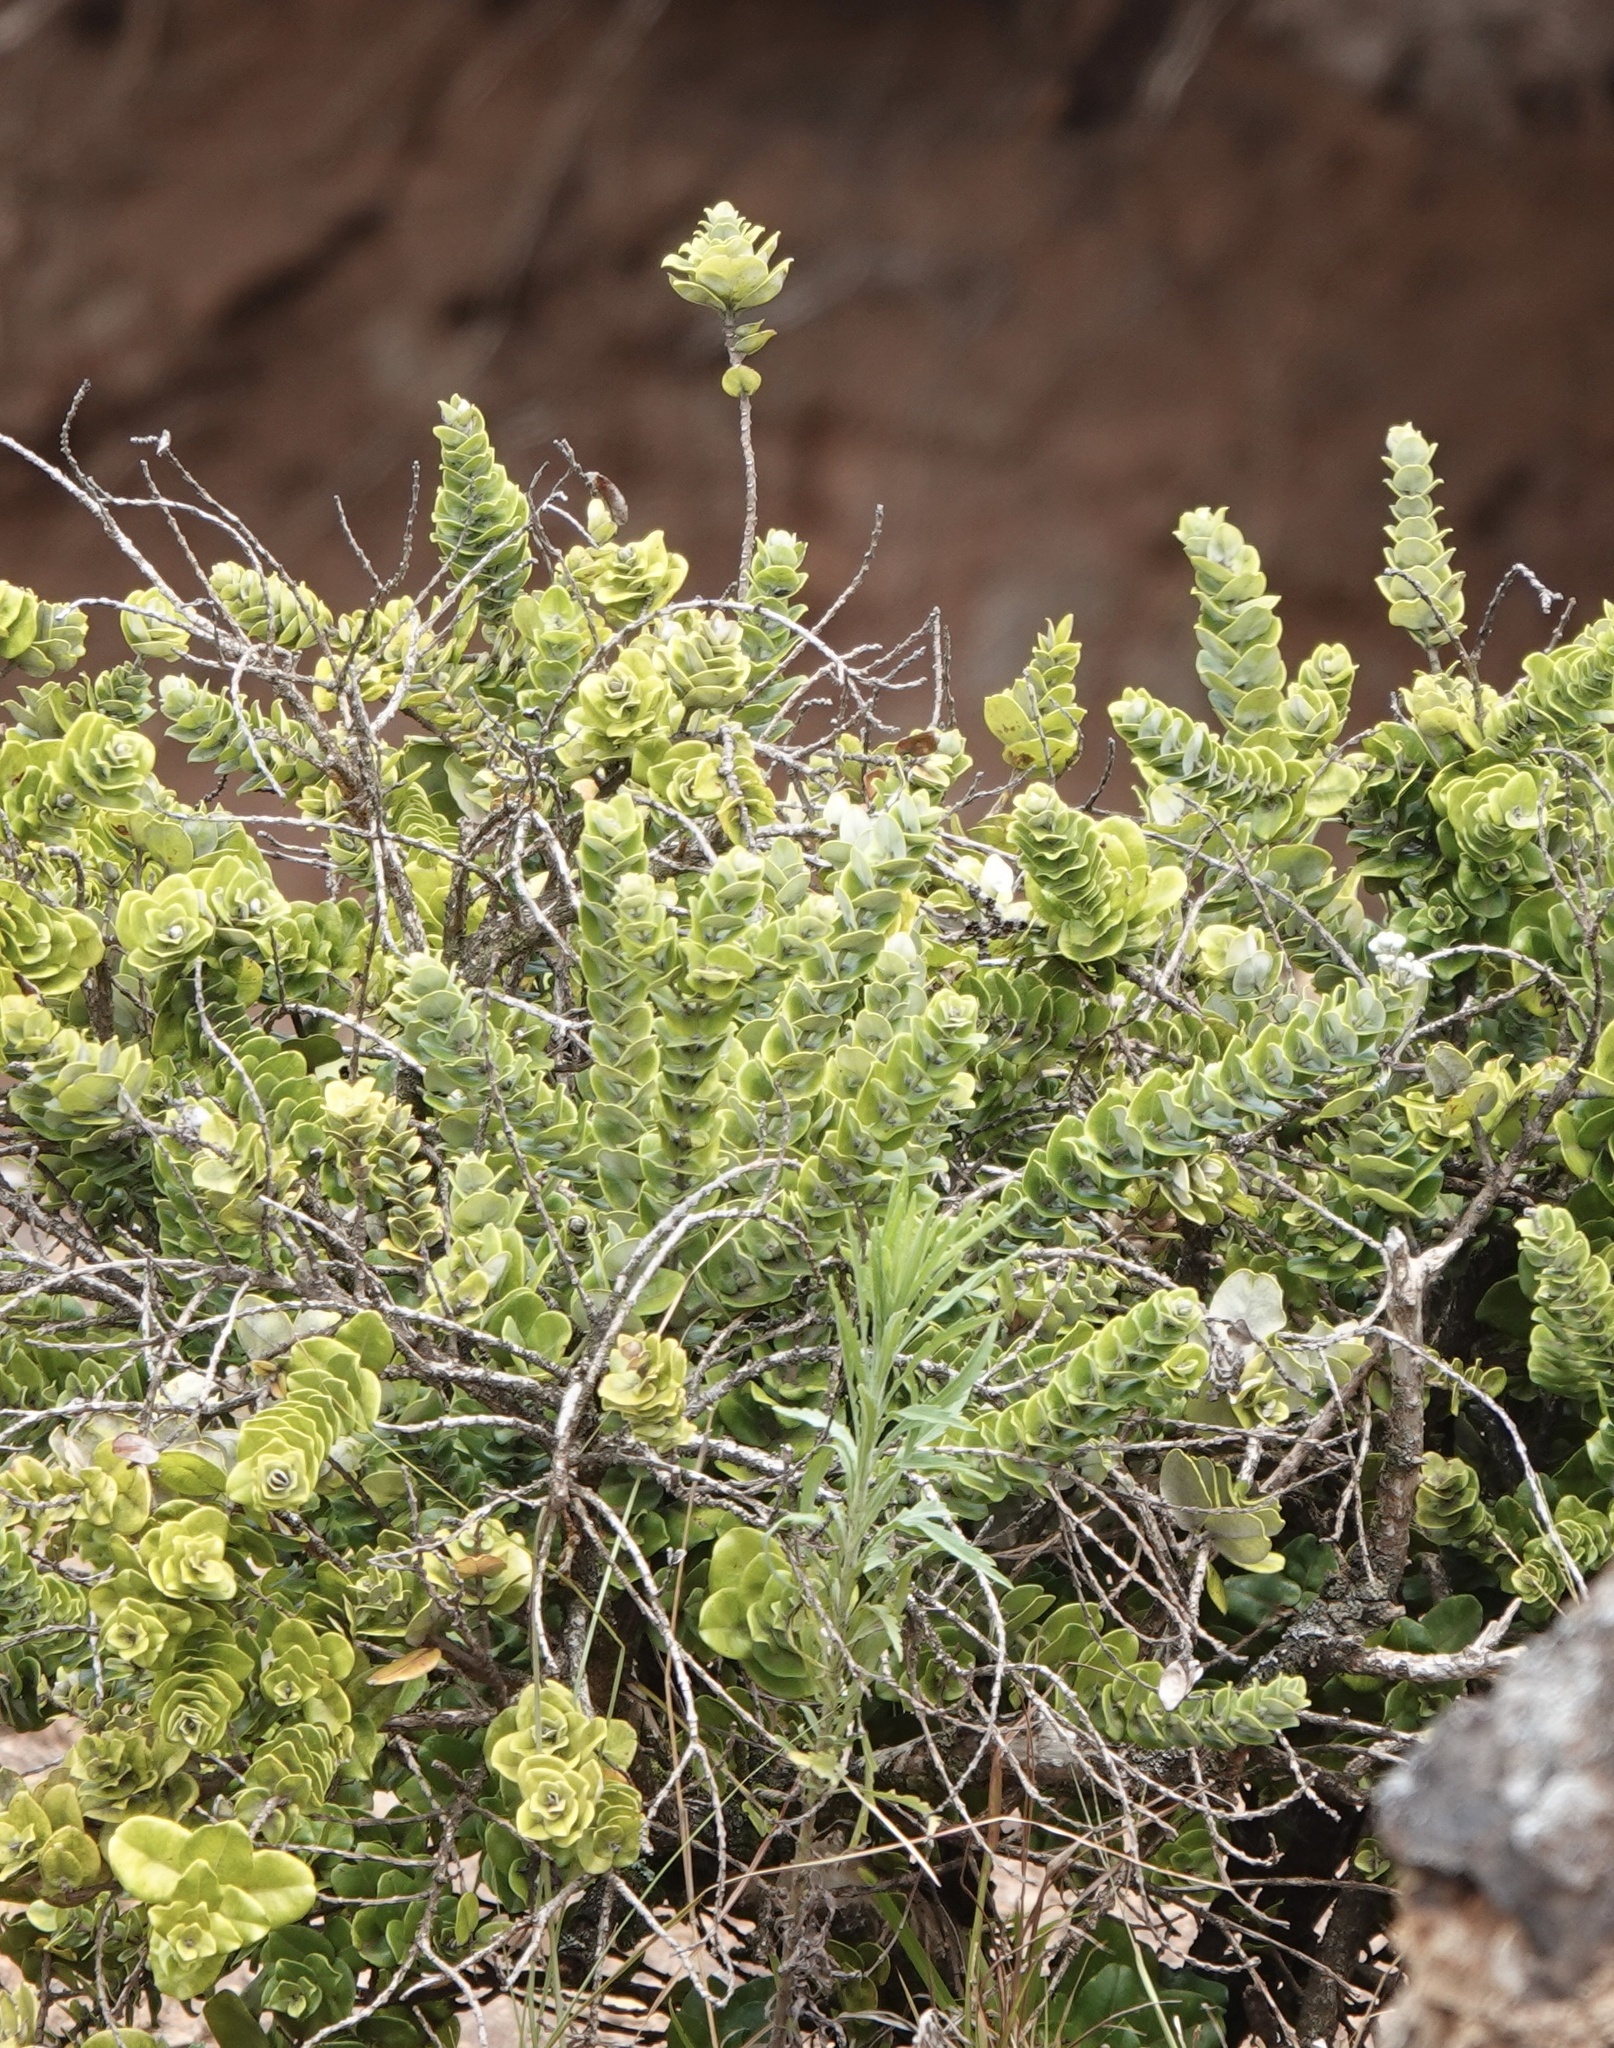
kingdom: Plantae
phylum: Tracheophyta
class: Magnoliopsida
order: Myrtales
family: Myrtaceae
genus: Metrosideros
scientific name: Metrosideros polymorpha
